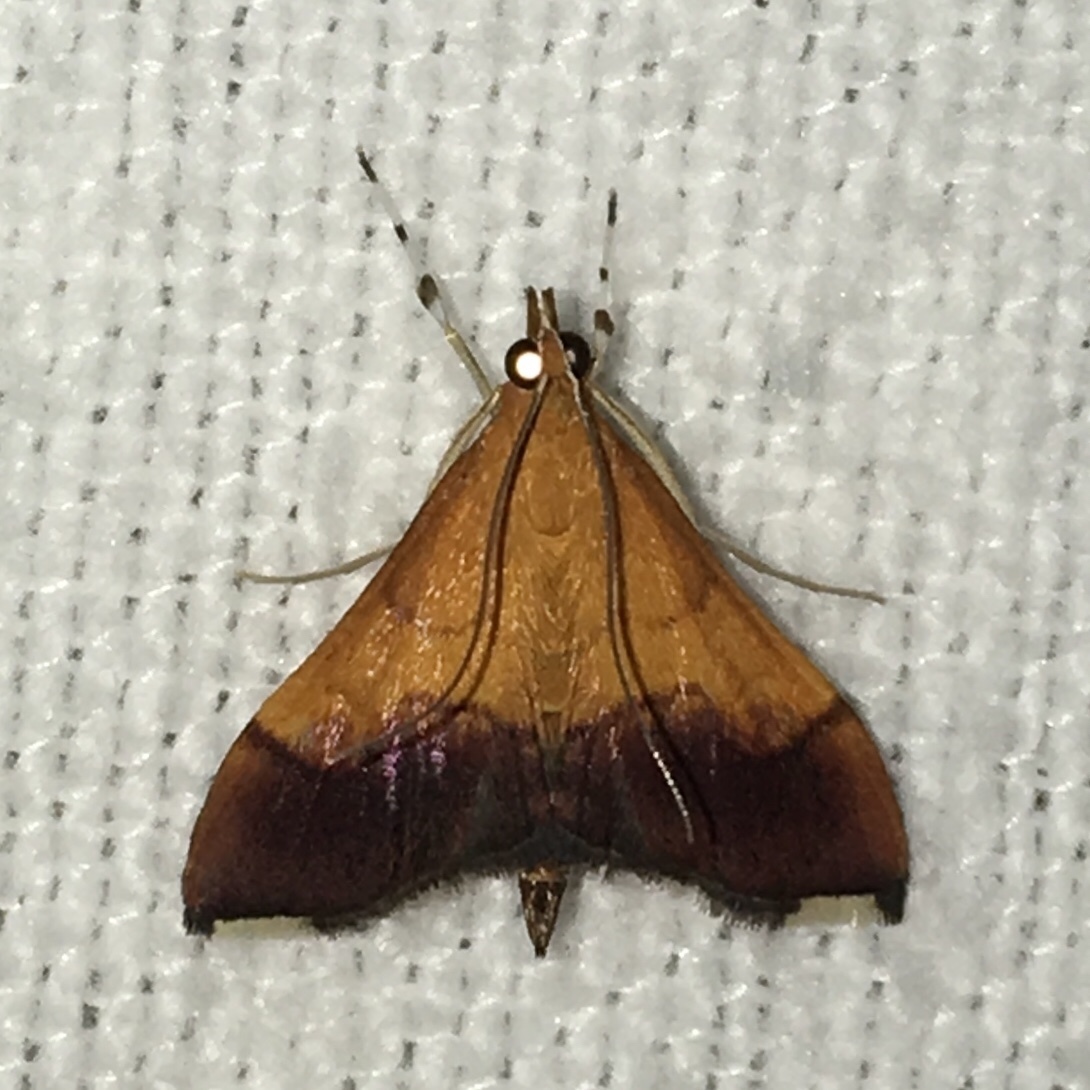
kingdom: Animalia
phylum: Arthropoda
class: Insecta
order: Lepidoptera
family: Crambidae
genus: Pyrausta
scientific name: Pyrausta bicoloralis
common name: Bicolored pyrausta moth
